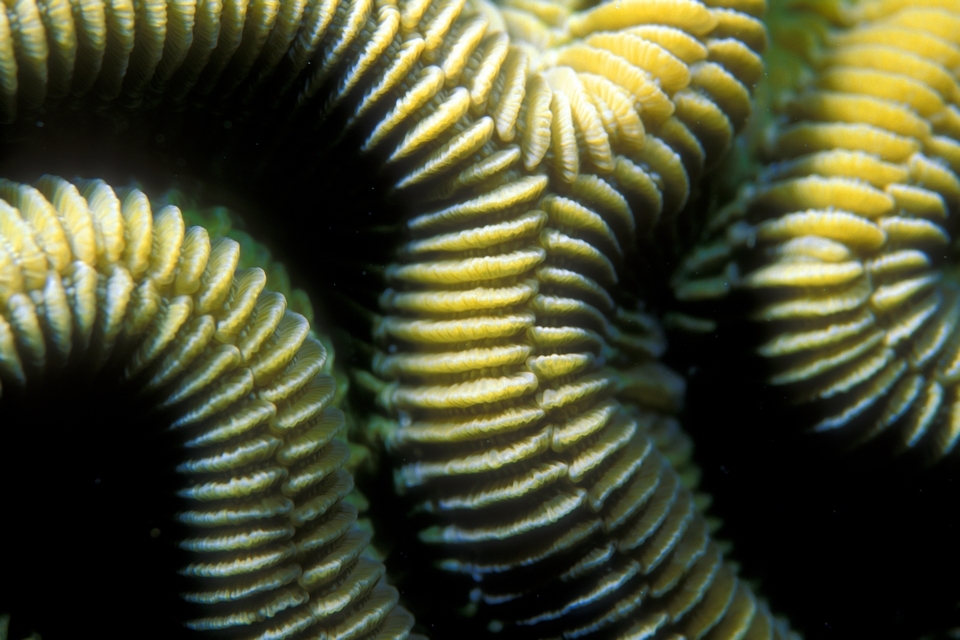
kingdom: Animalia
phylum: Cnidaria
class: Anthozoa
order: Scleractinia
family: Faviidae
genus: Colpophyllia
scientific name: Colpophyllia natans
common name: Boulder brain coral
